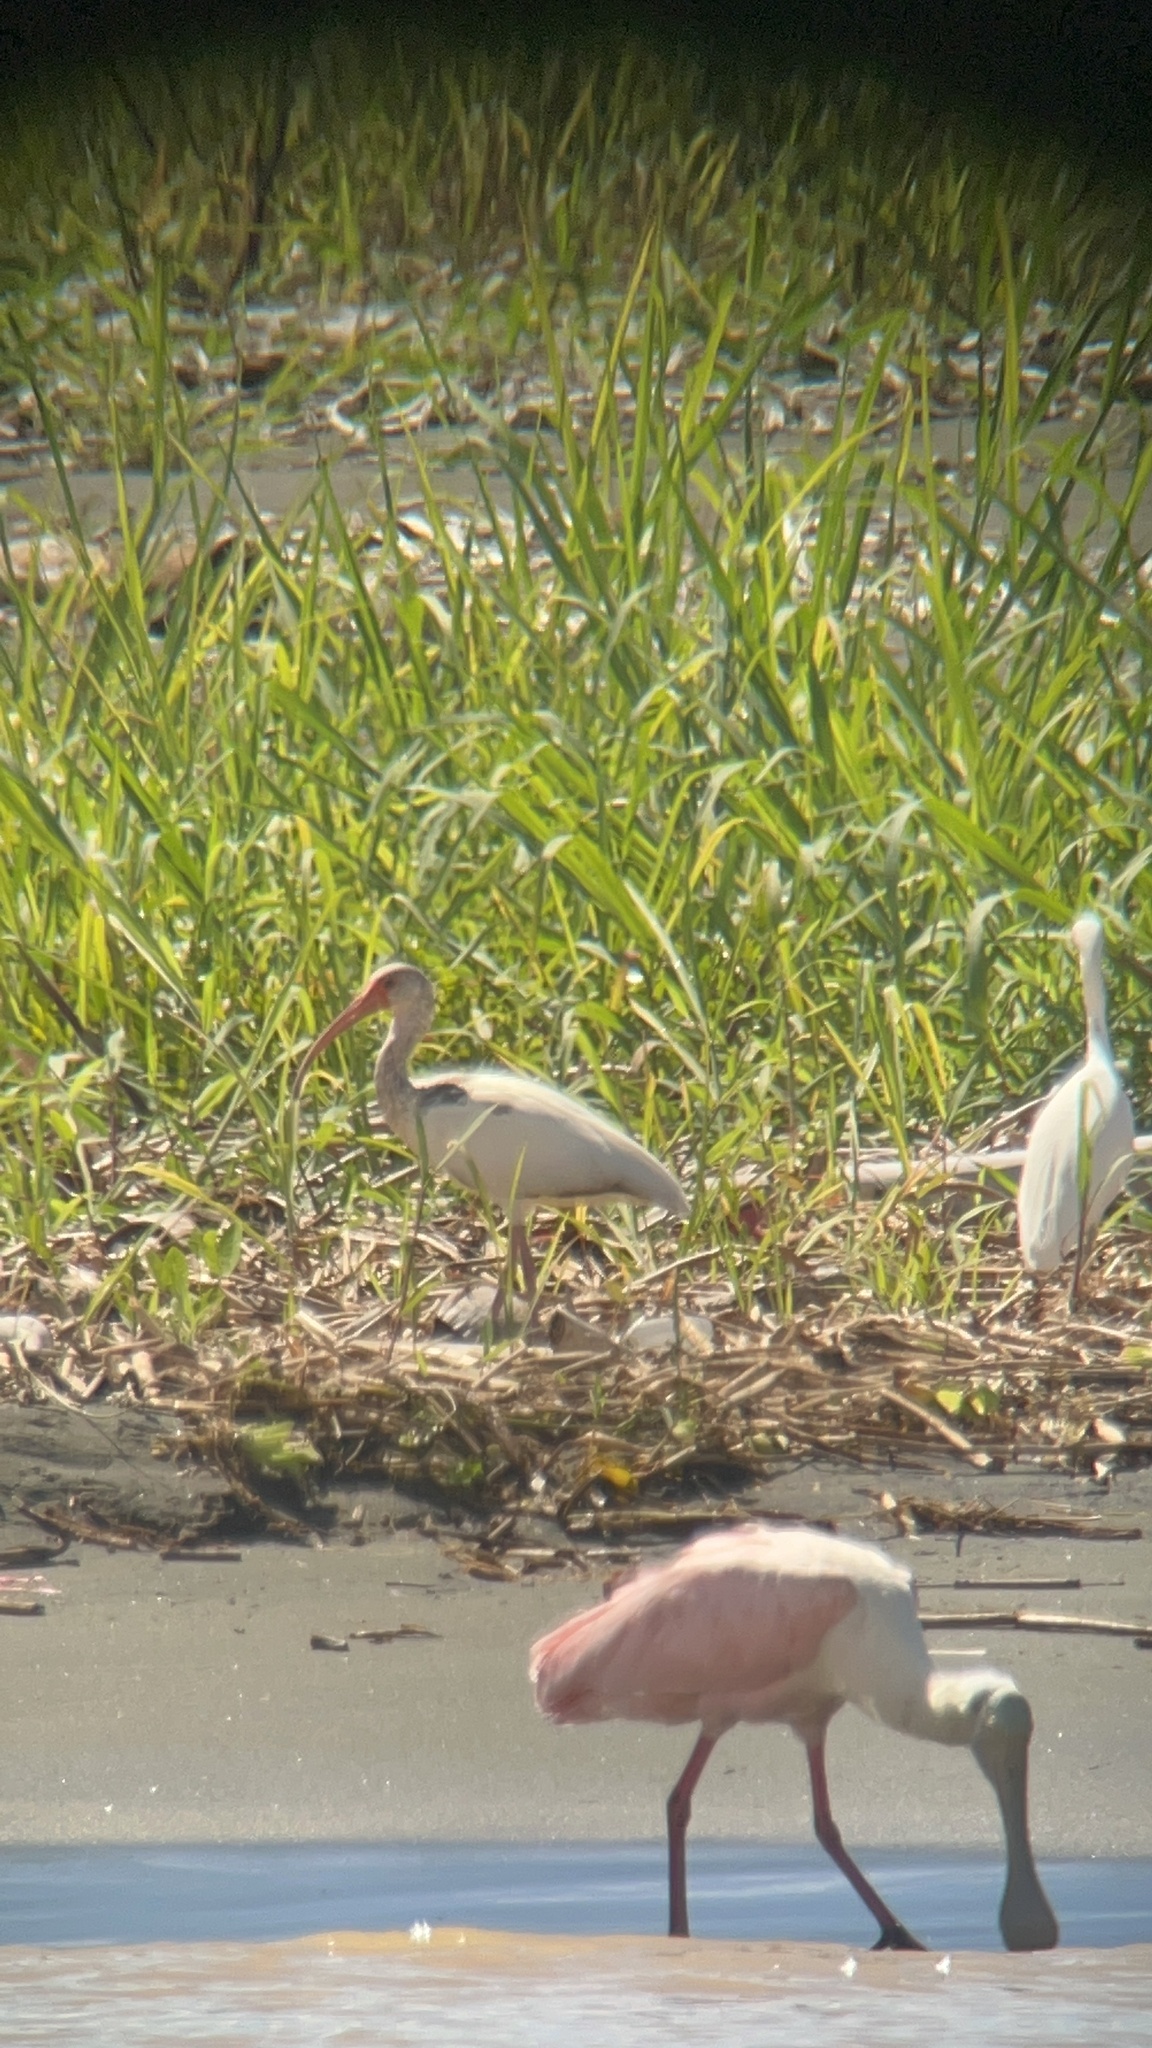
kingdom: Animalia
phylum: Chordata
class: Aves
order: Pelecaniformes
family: Threskiornithidae
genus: Eudocimus
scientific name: Eudocimus albus
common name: White ibis
